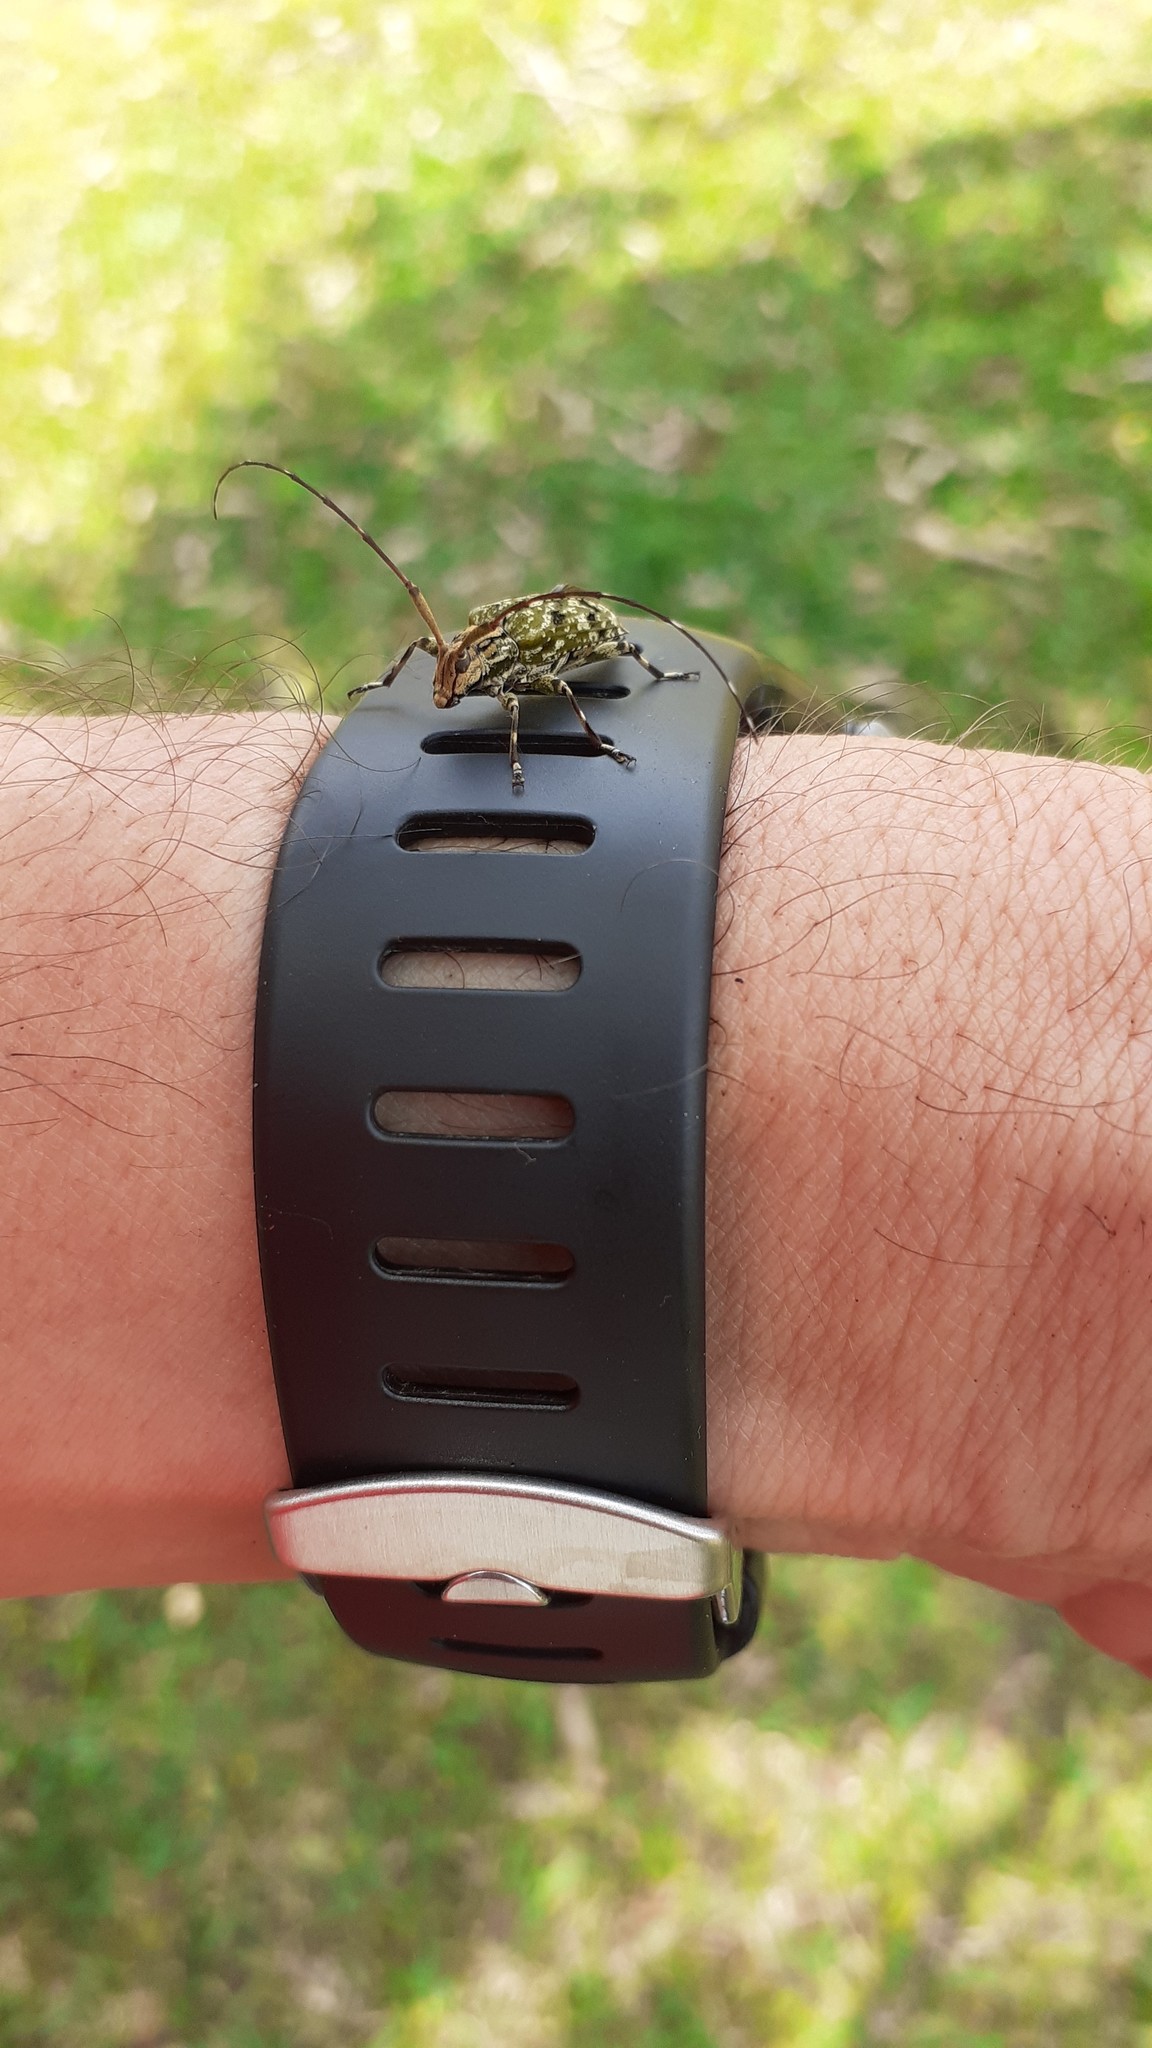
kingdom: Animalia
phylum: Arthropoda
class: Insecta
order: Coleoptera
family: Cerambycidae
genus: Colobothea
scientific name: Colobothea musiva
